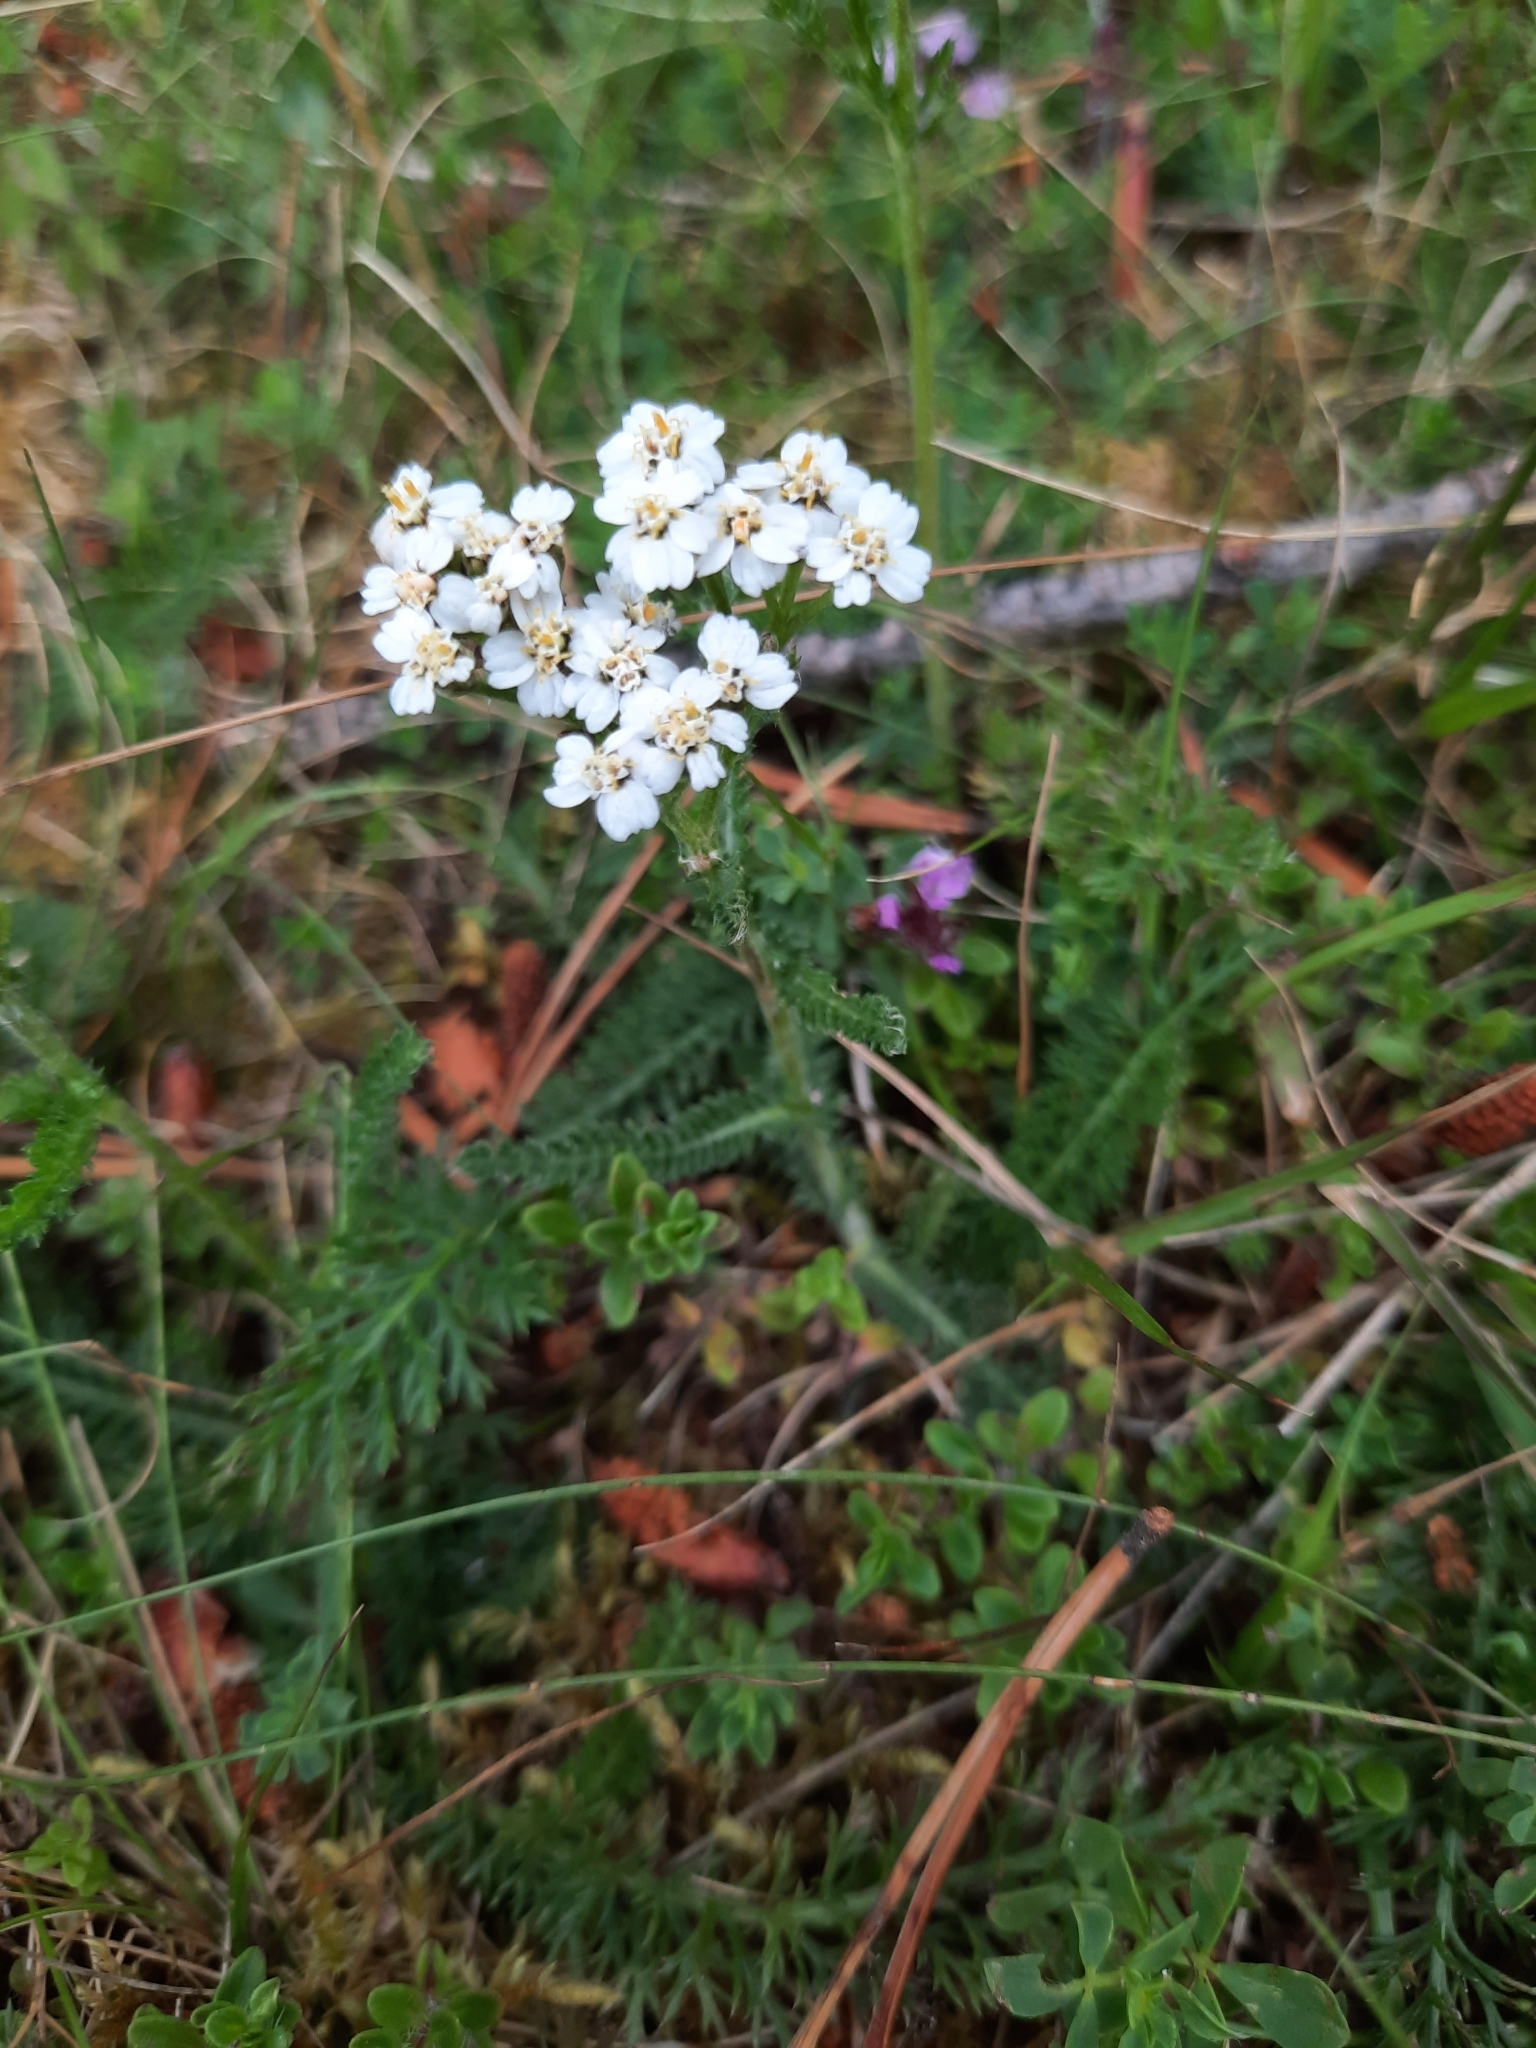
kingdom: Plantae
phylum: Tracheophyta
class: Magnoliopsida
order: Asterales
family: Asteraceae
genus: Achillea
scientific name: Achillea millefolium
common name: Yarrow
